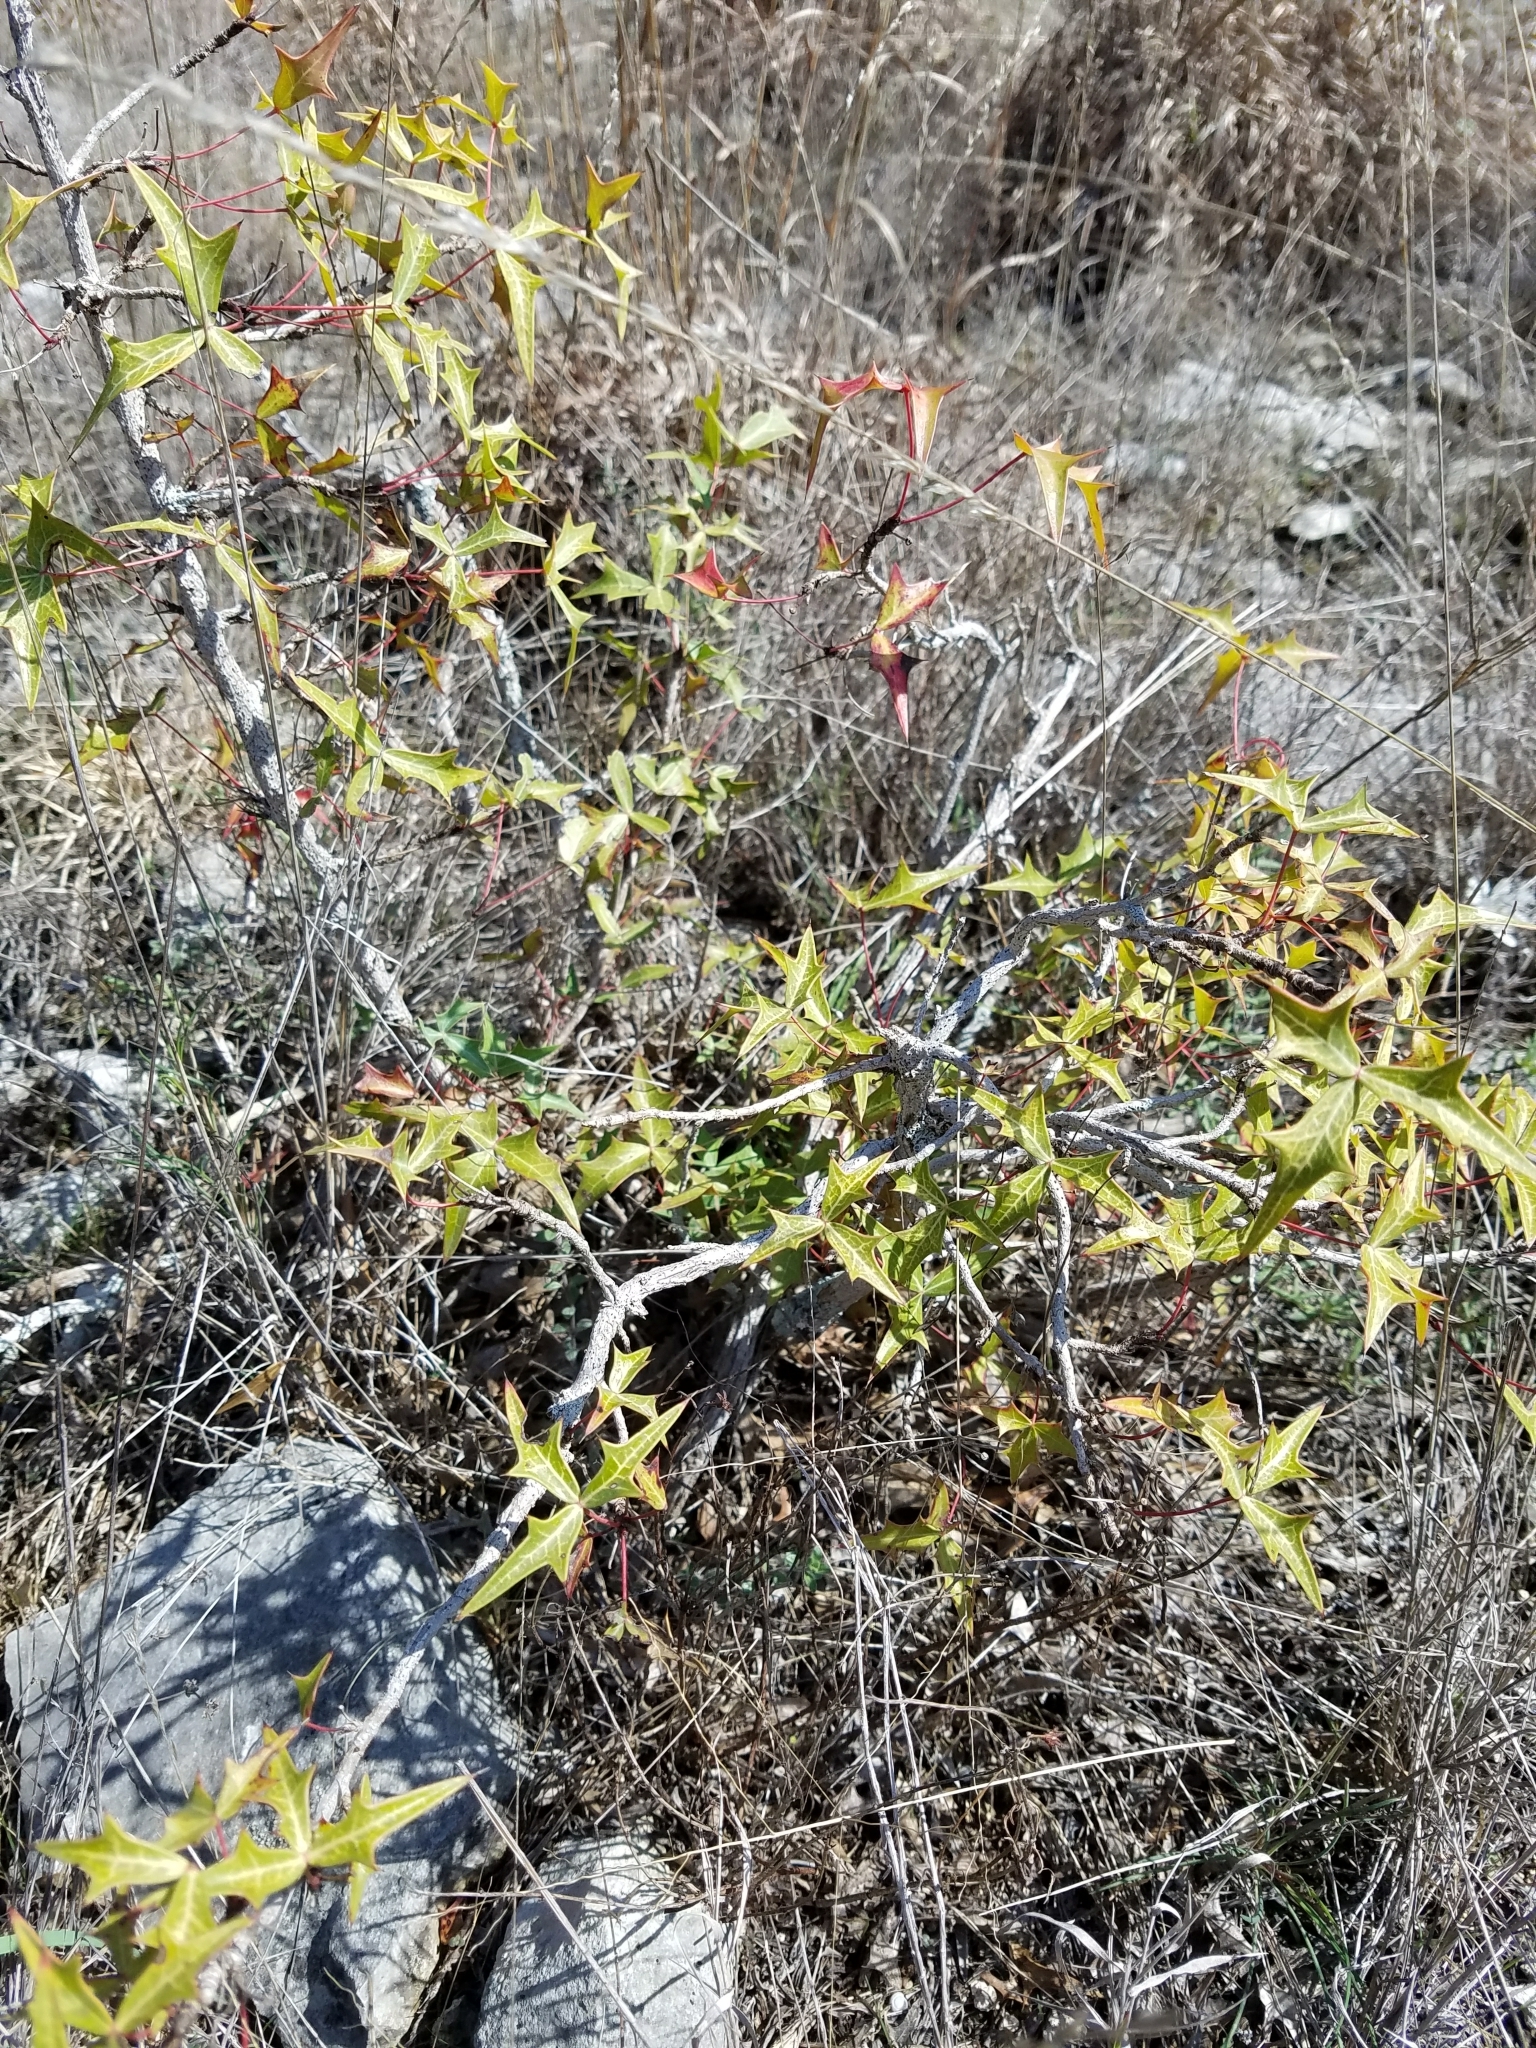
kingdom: Plantae
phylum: Tracheophyta
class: Magnoliopsida
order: Ranunculales
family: Berberidaceae
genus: Alloberberis
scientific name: Alloberberis trifoliolata
